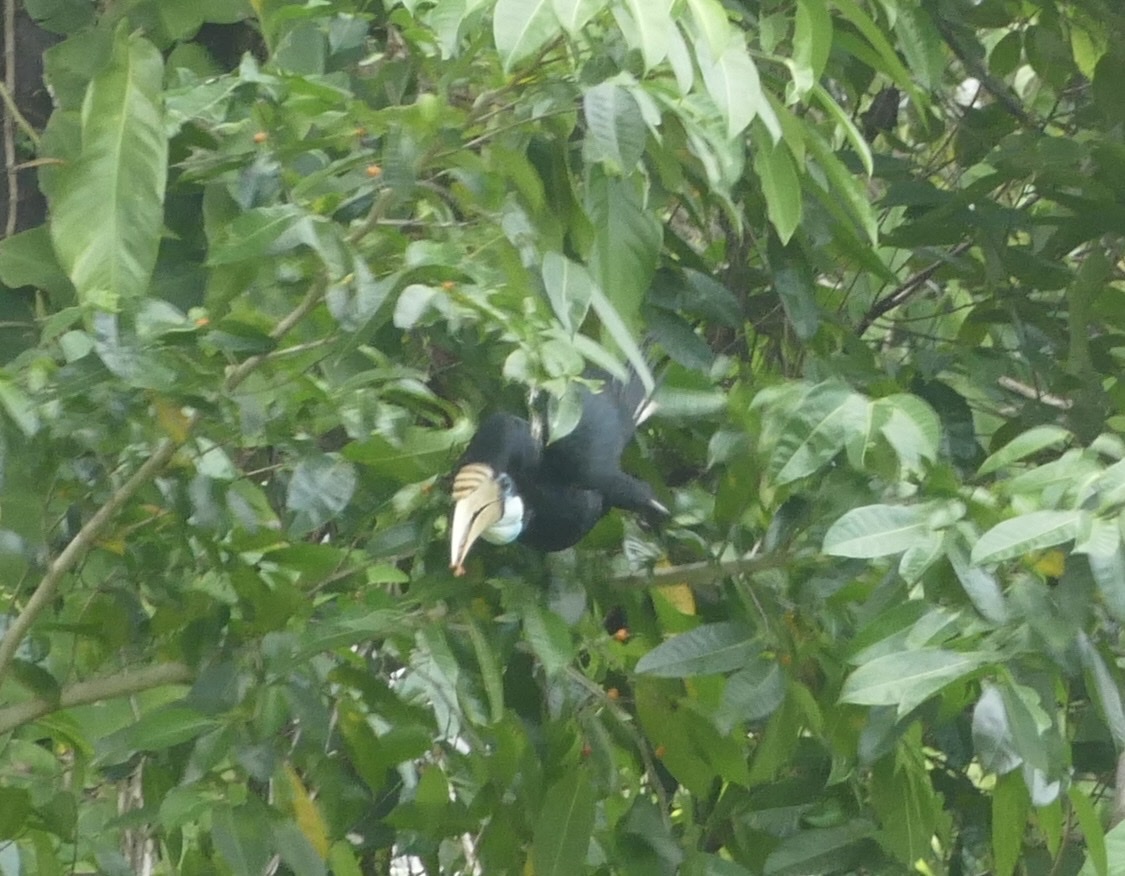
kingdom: Animalia
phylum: Chordata
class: Aves
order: Bucerotiformes
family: Bucerotidae
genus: Rhyticeros
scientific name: Rhyticeros plicatus
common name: Blyth's hornbill
